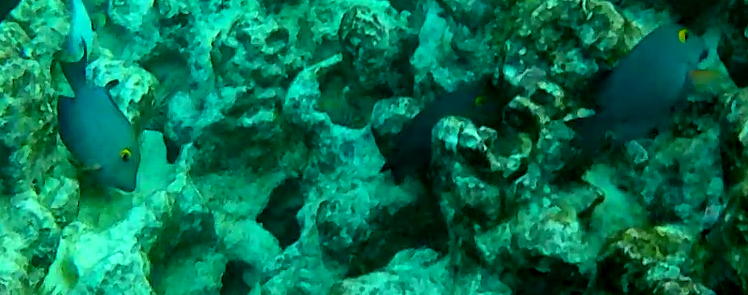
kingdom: Animalia
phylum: Chordata
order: Perciformes
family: Acanthuridae
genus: Ctenochaetus
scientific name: Ctenochaetus strigosus
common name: Bristletoothed surgeonfish
